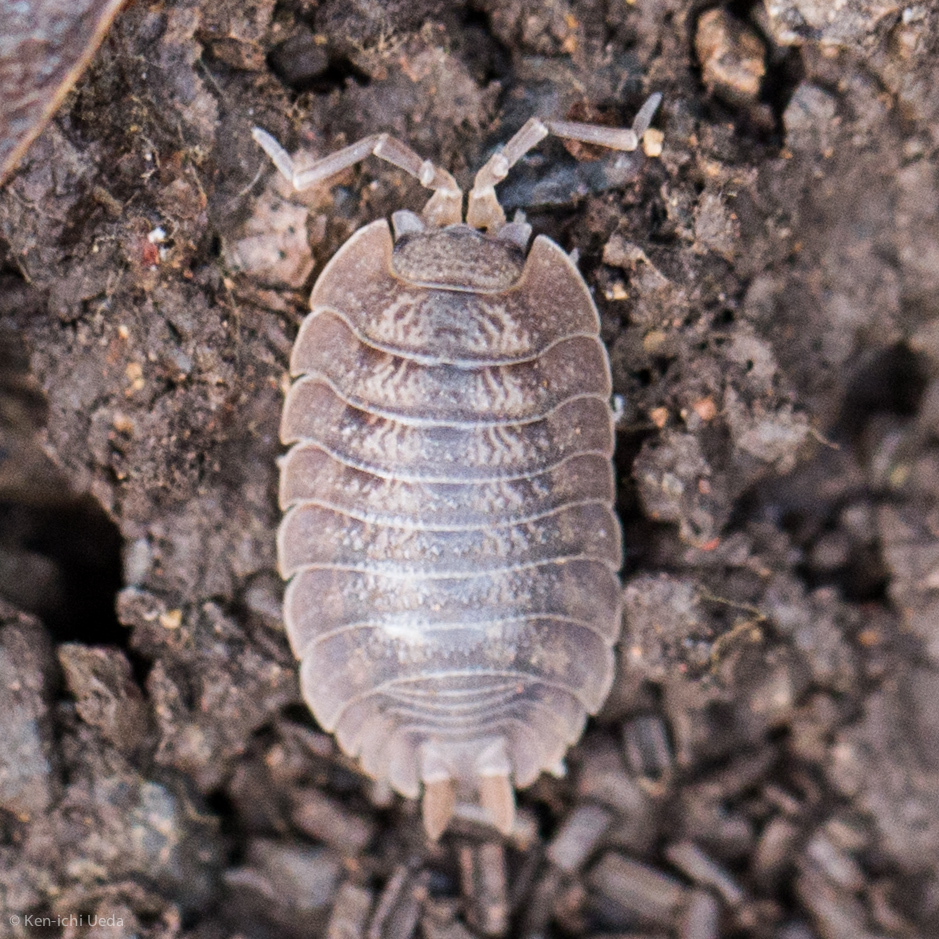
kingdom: Animalia
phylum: Arthropoda
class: Malacostraca
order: Isopoda
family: Porcellionidae
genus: Porcellio
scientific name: Porcellio dilatatus
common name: Isopod
